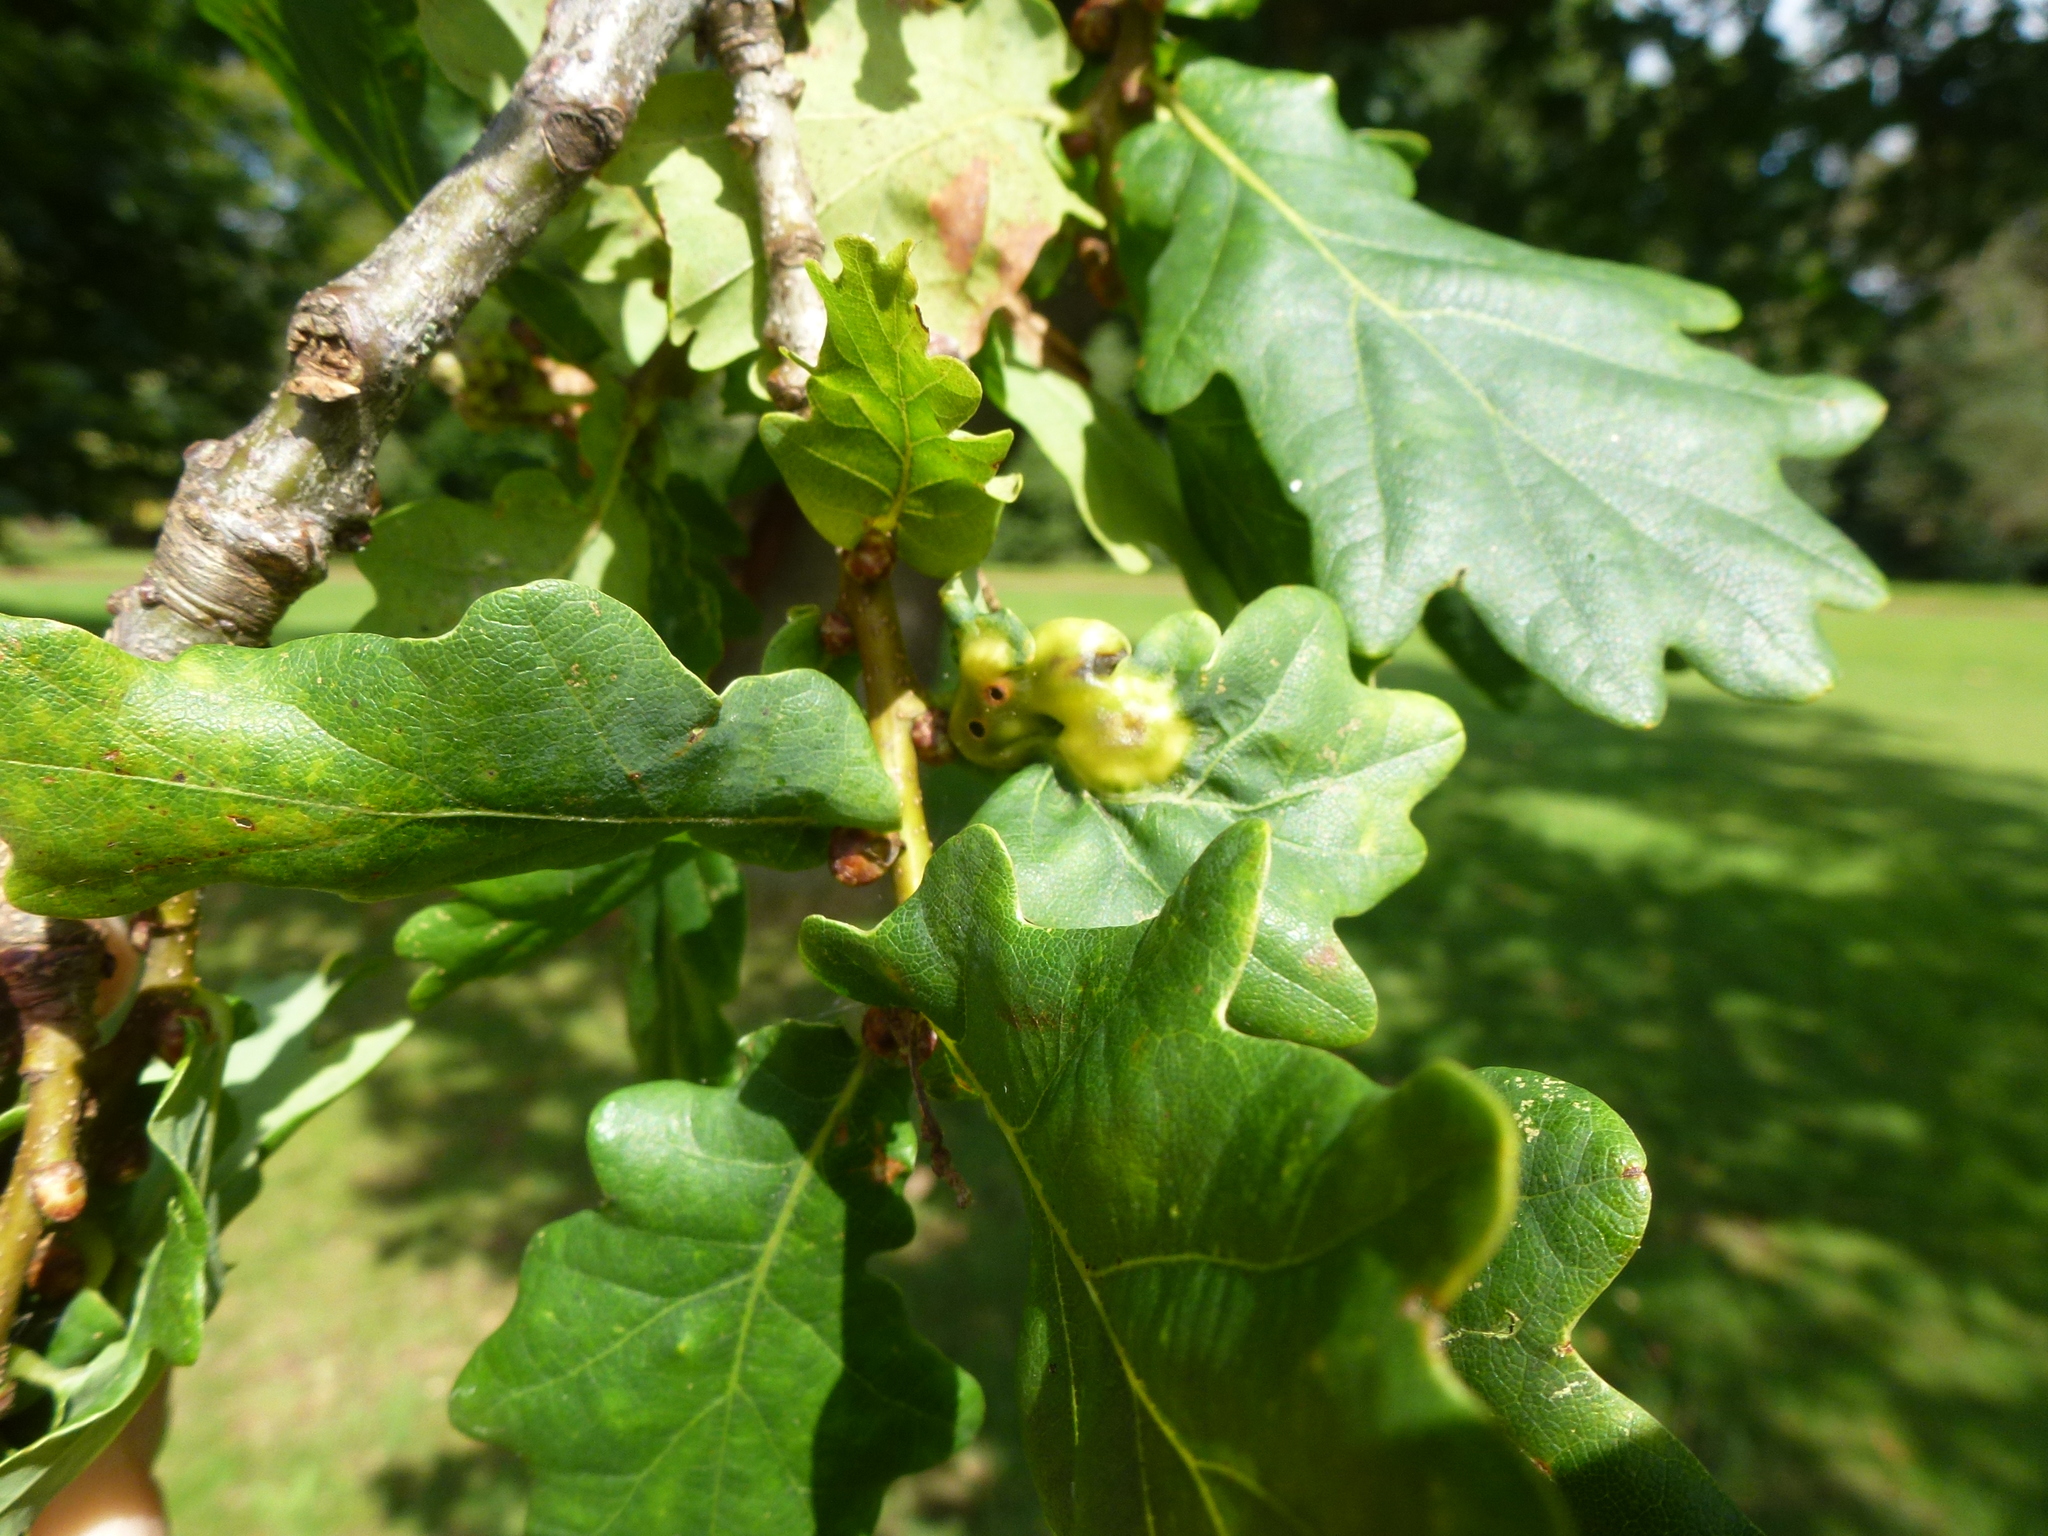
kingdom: Animalia
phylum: Arthropoda
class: Insecta
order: Hymenoptera
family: Cynipidae
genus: Andricus
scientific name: Andricus curvator
